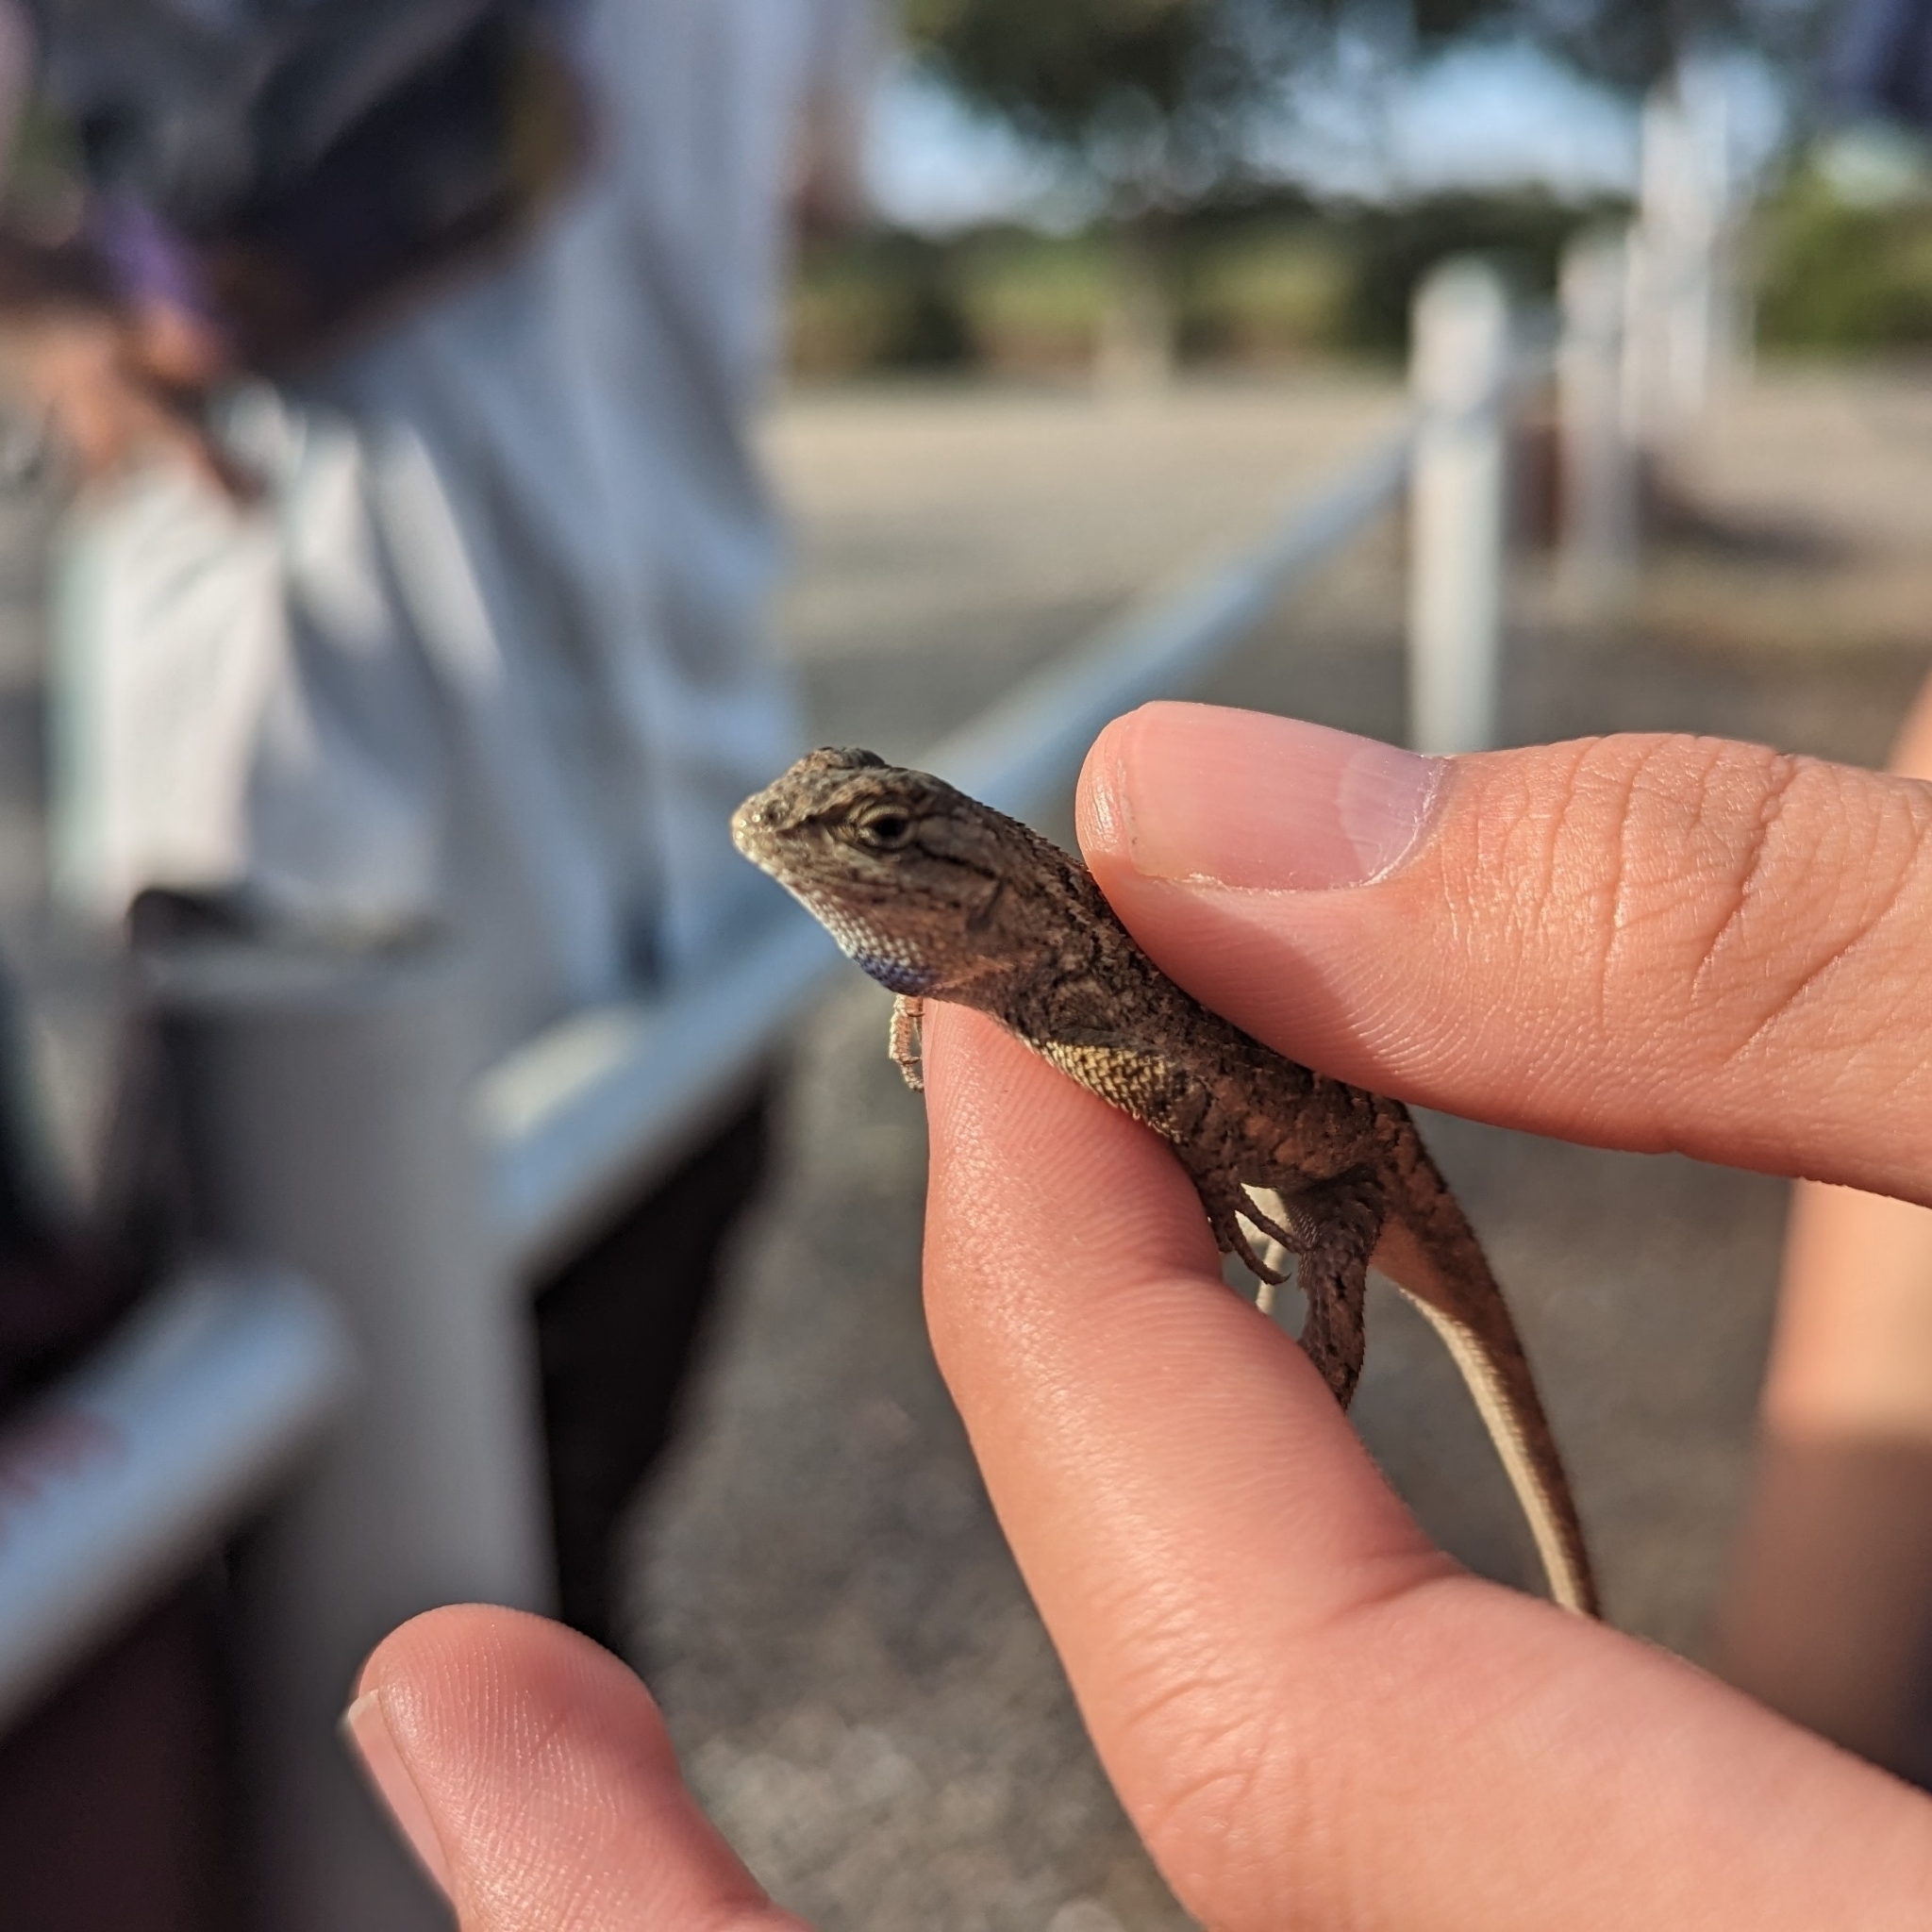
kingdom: Animalia
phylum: Chordata
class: Squamata
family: Phrynosomatidae
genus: Sceloporus
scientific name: Sceloporus occidentalis
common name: Western fence lizard
